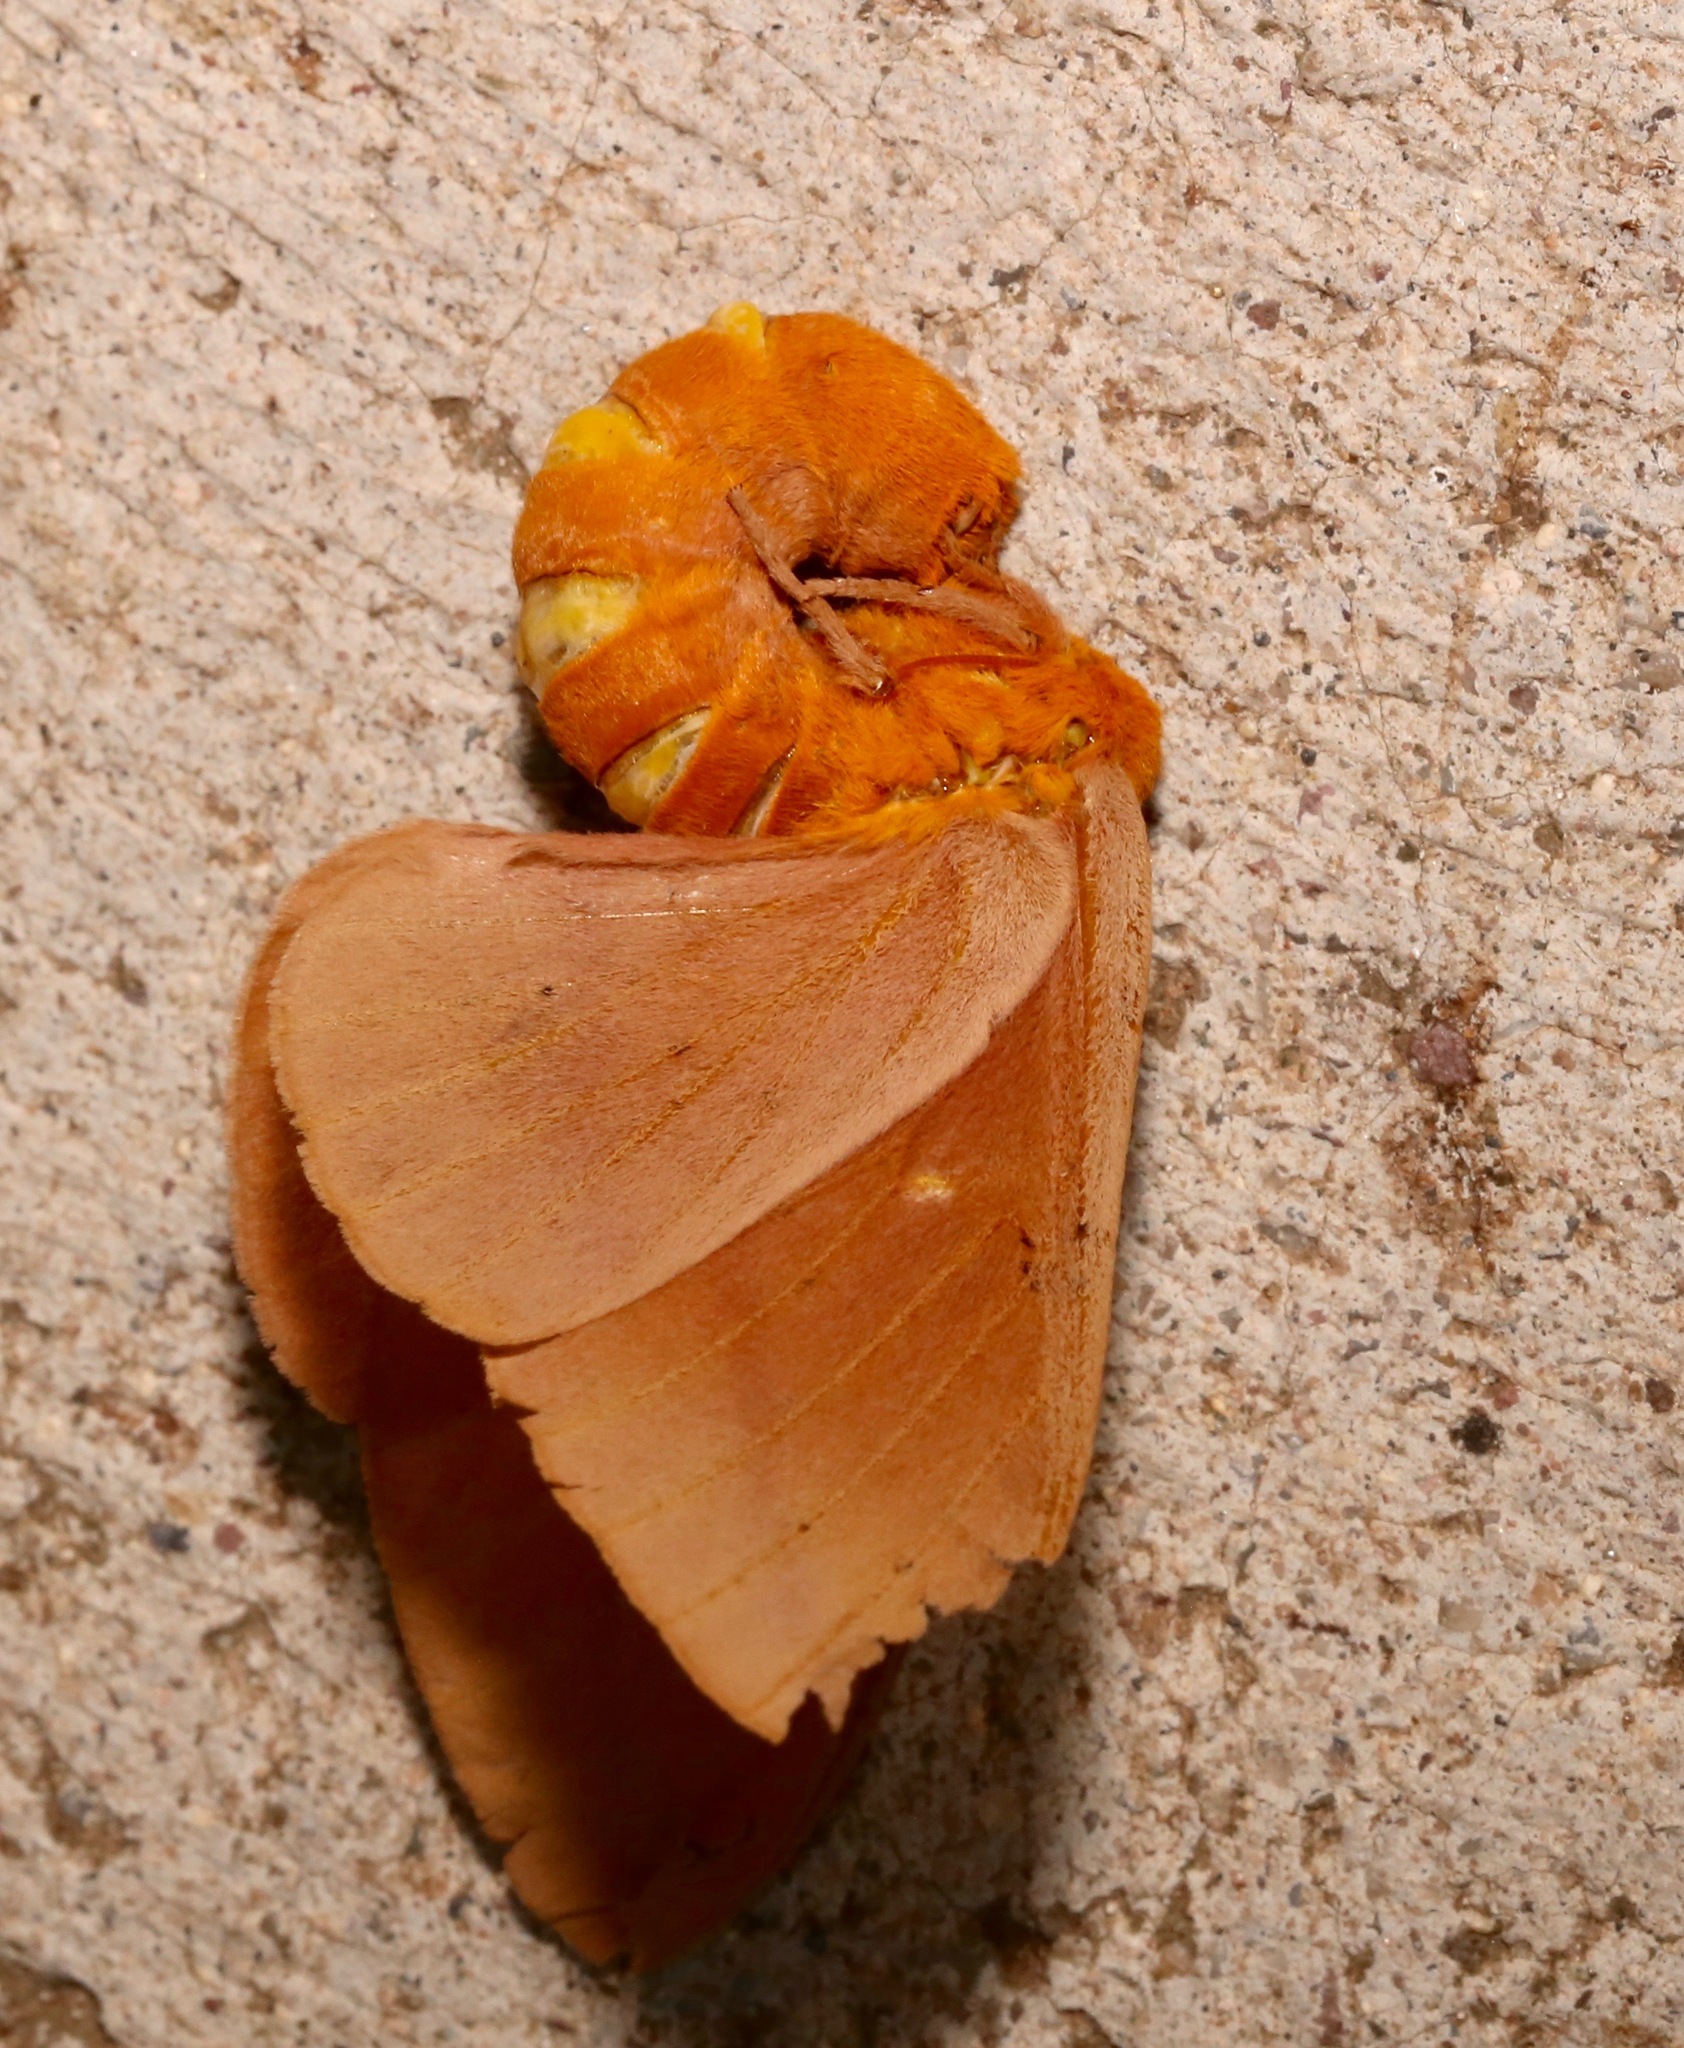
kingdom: Animalia
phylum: Arthropoda
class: Insecta
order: Lepidoptera
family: Saturniidae
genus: Anisota
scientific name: Anisota oslari
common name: Oslar's oakworm moth
